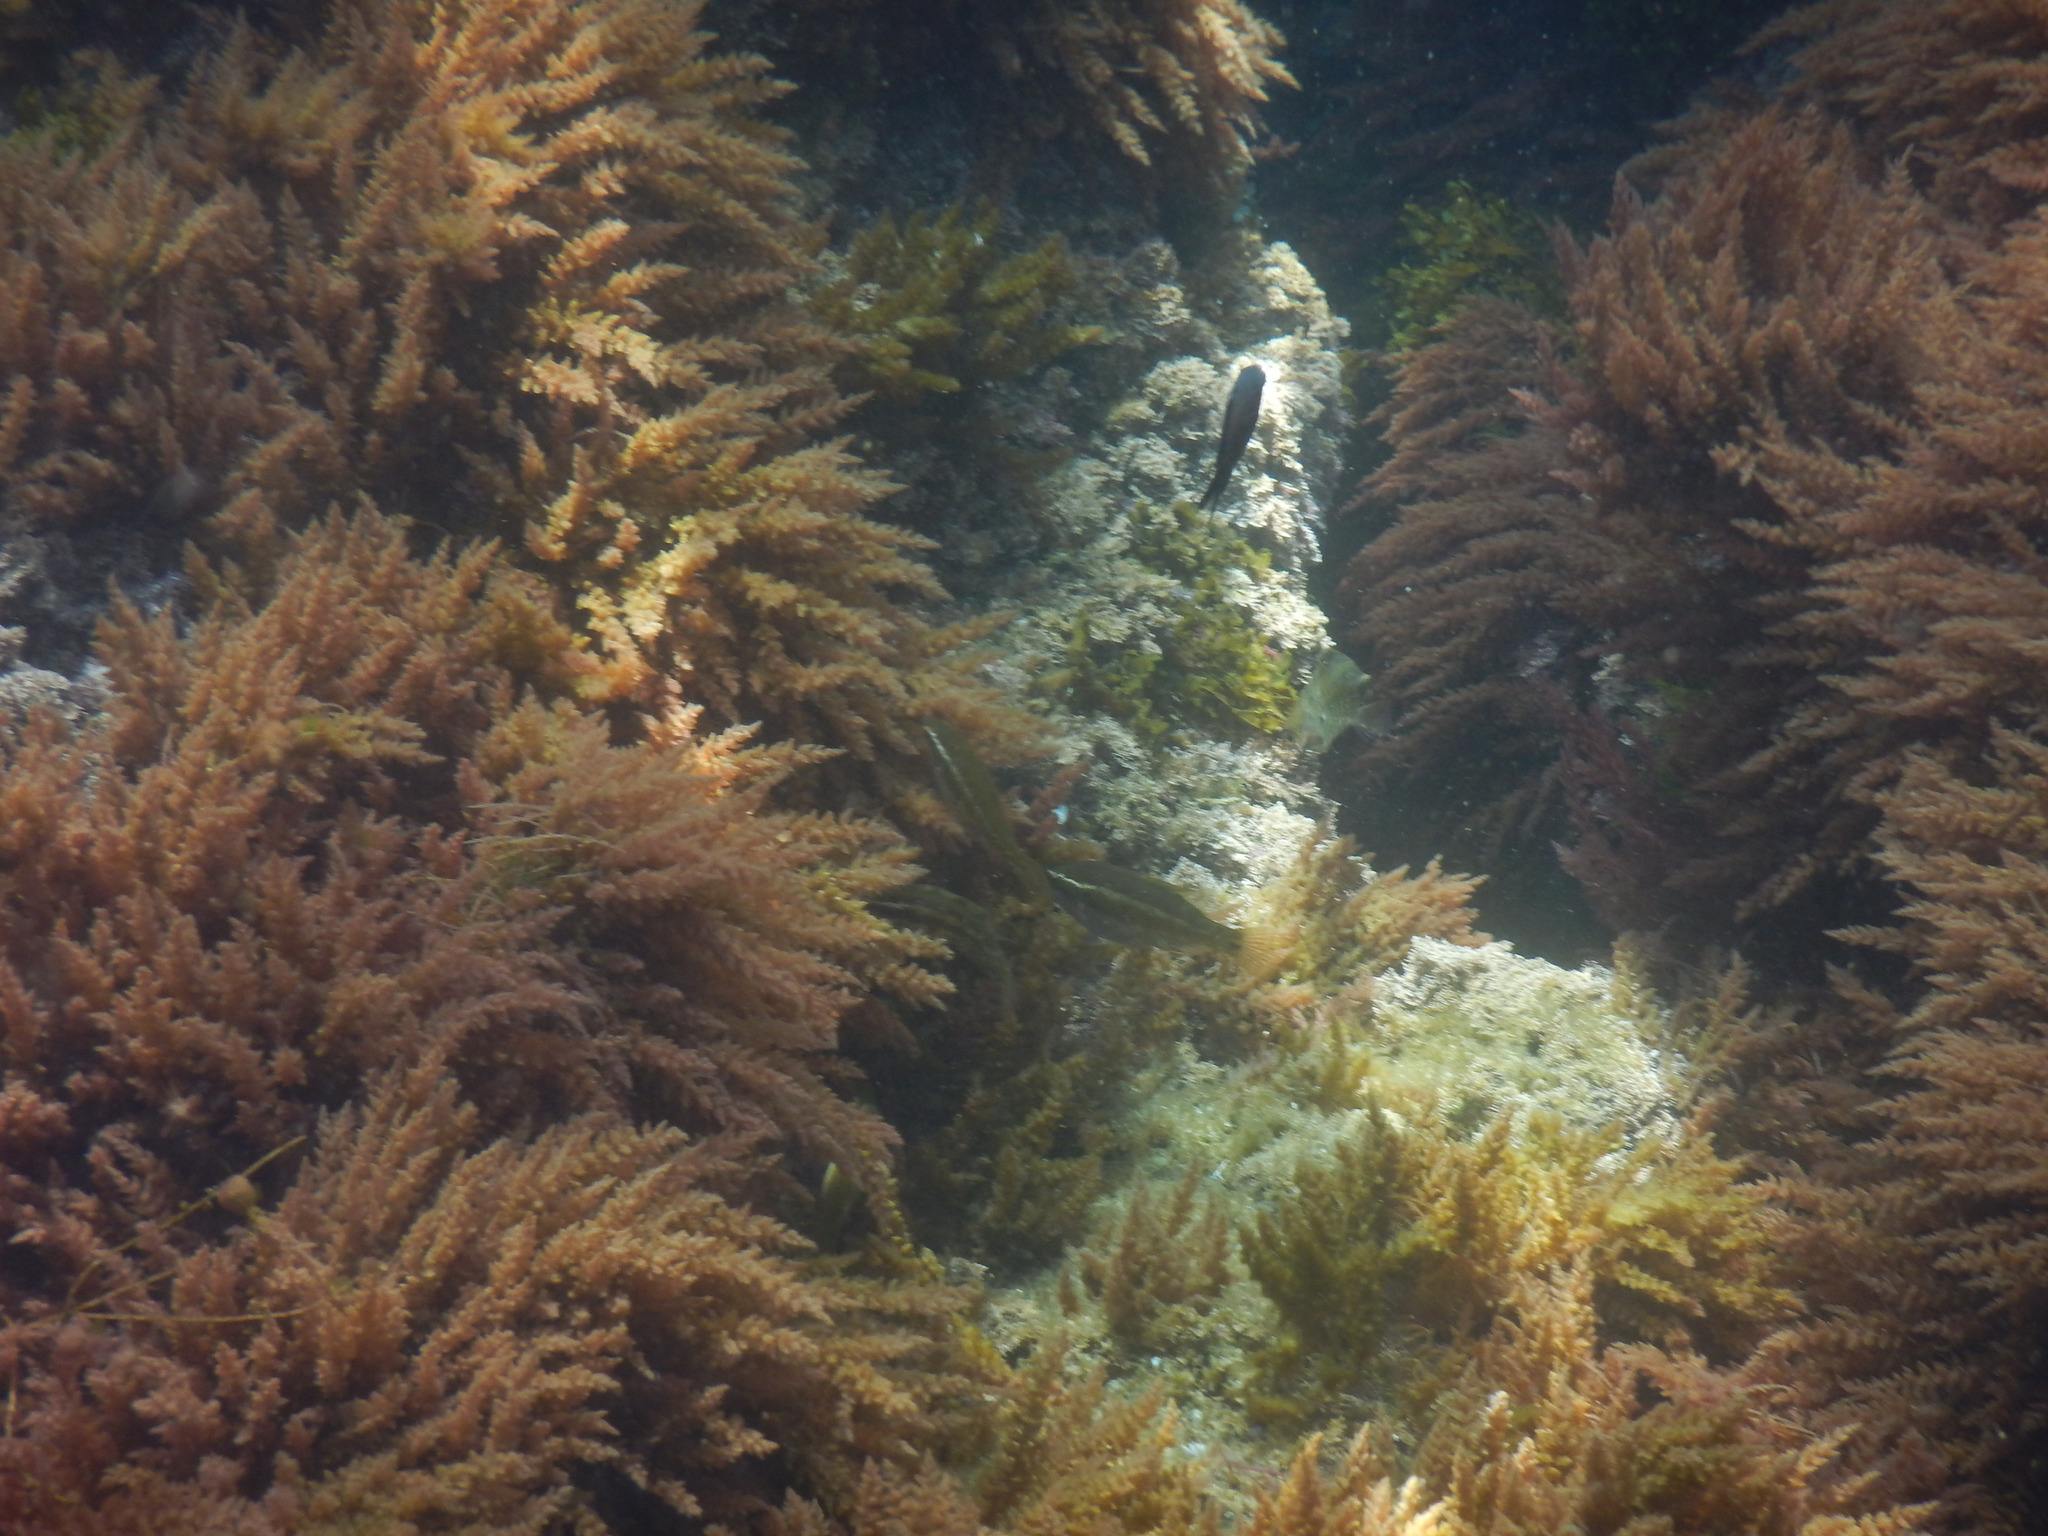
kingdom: Animalia
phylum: Chordata
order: Perciformes
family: Labridae
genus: Symphodus
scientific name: Symphodus ocellatus
